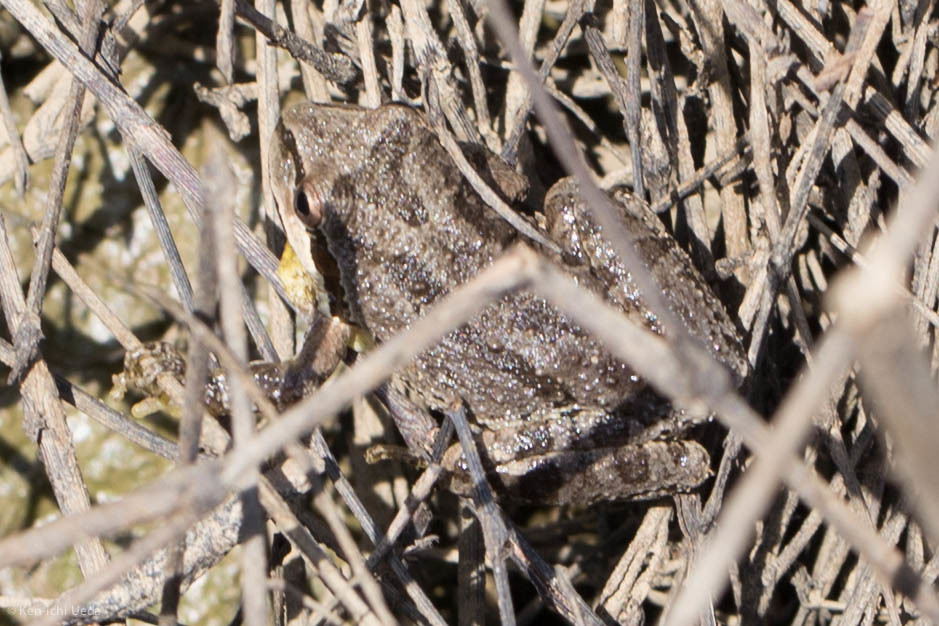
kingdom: Animalia
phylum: Chordata
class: Amphibia
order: Anura
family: Hylidae
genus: Pseudacris
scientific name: Pseudacris regilla
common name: Pacific chorus frog
